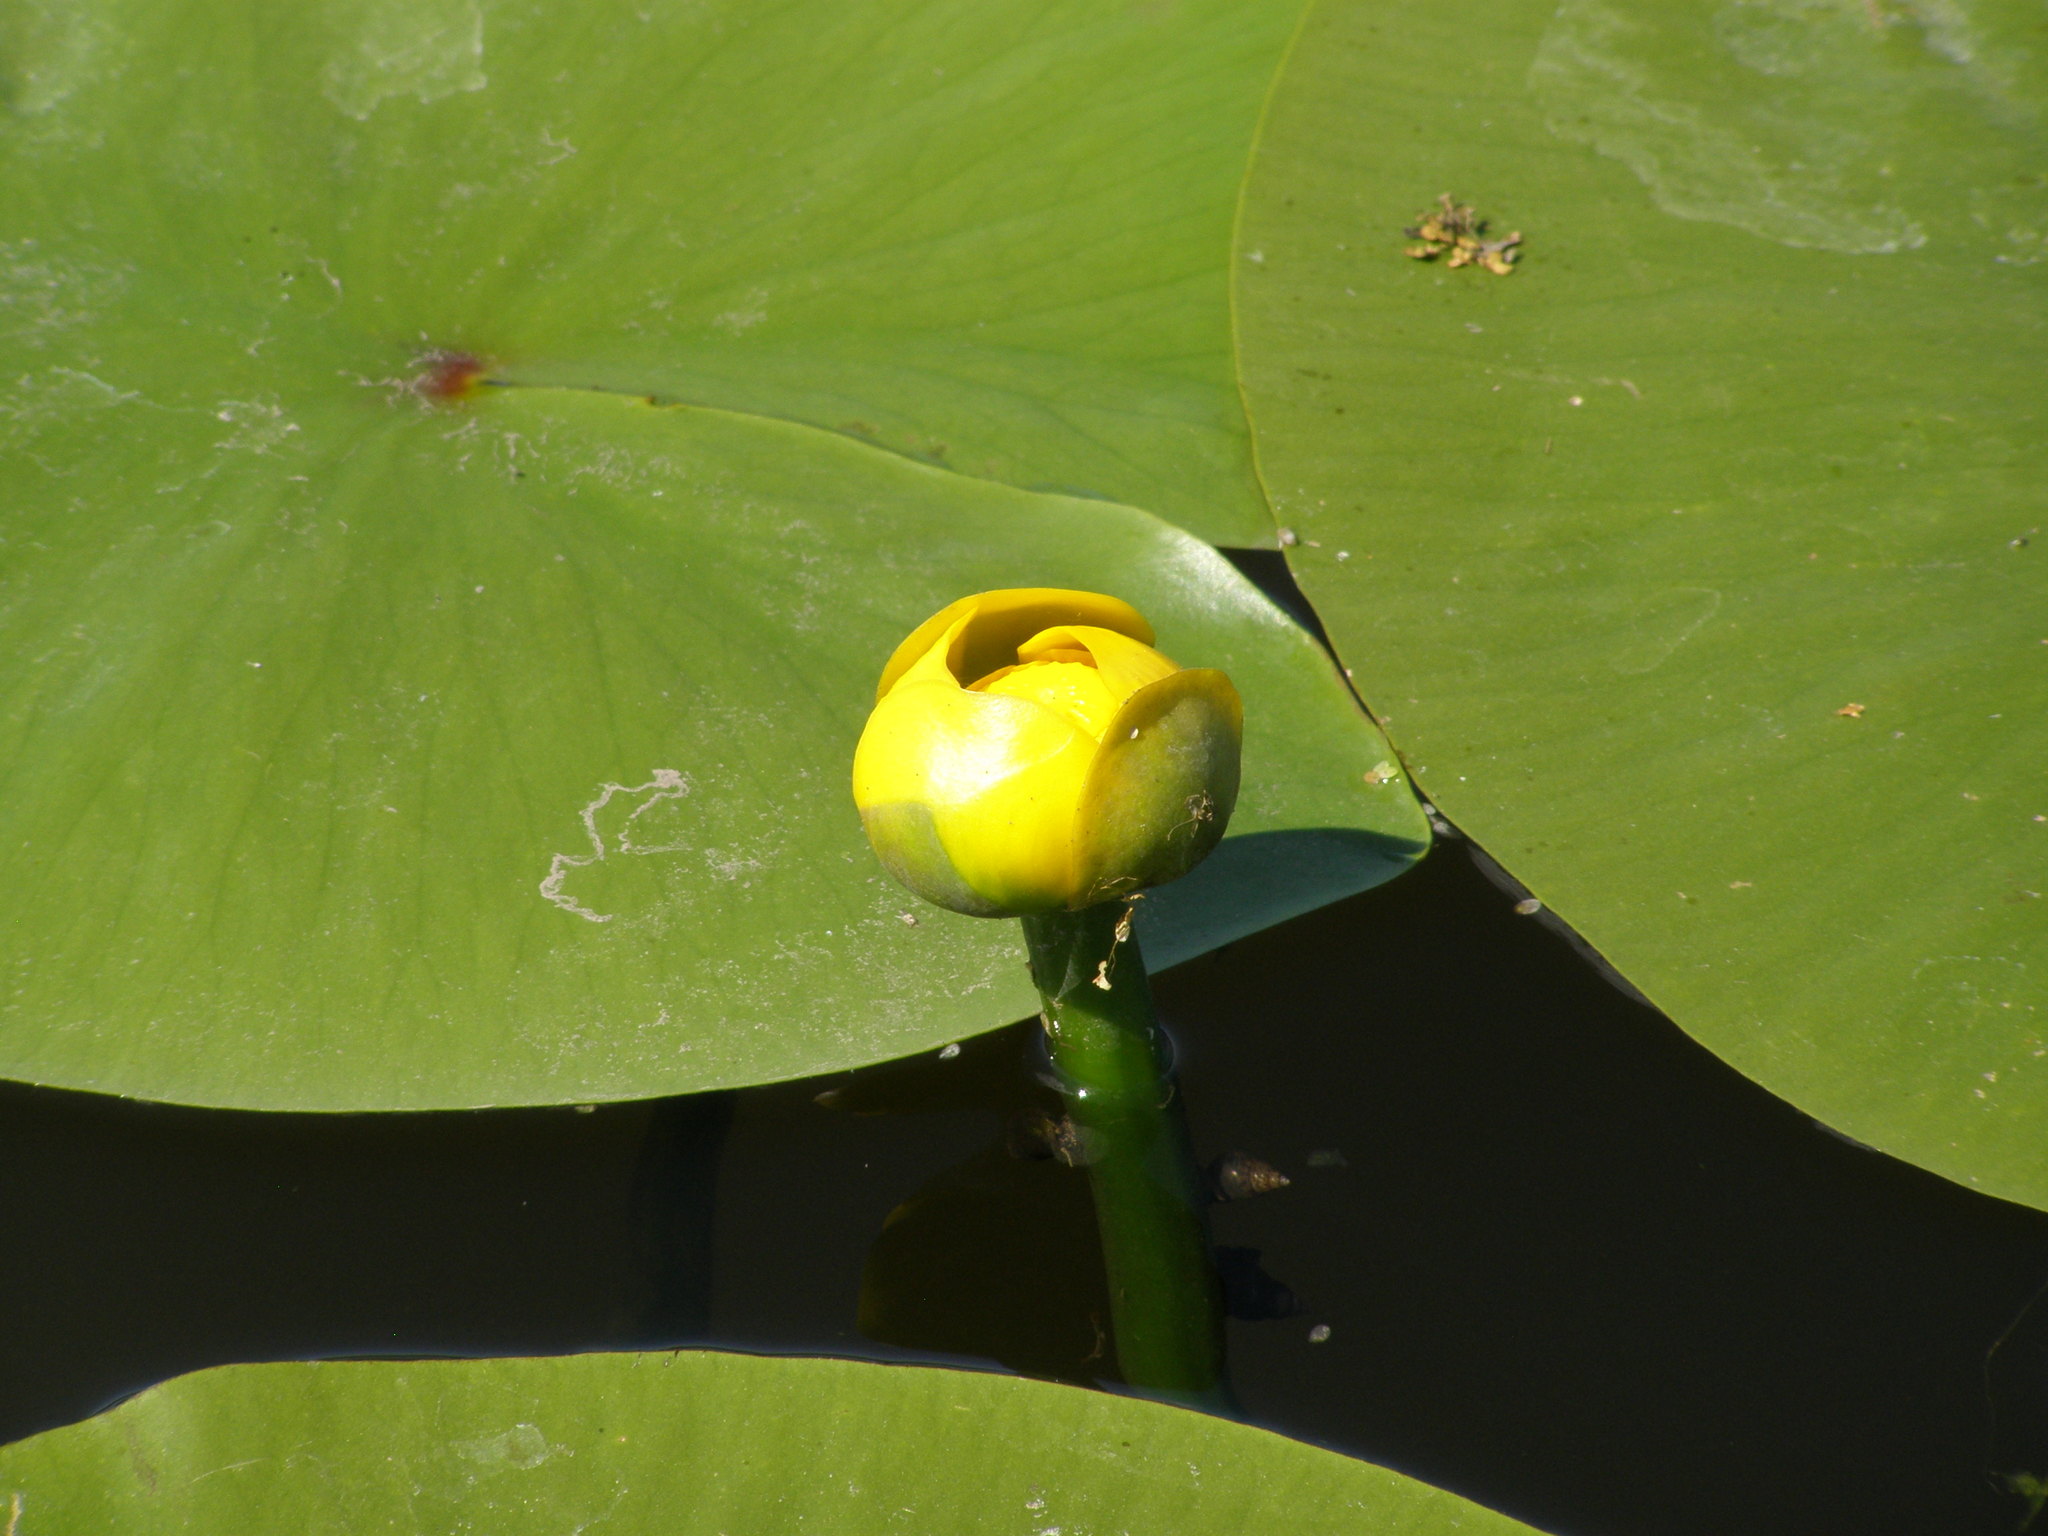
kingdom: Plantae
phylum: Tracheophyta
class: Magnoliopsida
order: Nymphaeales
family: Nymphaeaceae
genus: Nuphar
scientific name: Nuphar lutea
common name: Yellow water-lily
